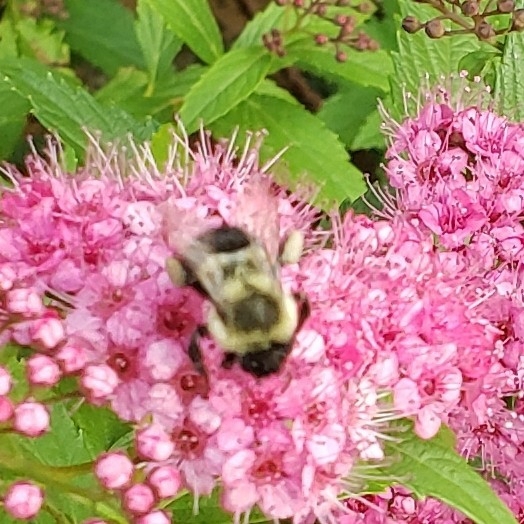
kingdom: Animalia
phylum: Arthropoda
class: Insecta
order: Hymenoptera
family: Apidae
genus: Bombus
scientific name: Bombus impatiens
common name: Common eastern bumble bee
